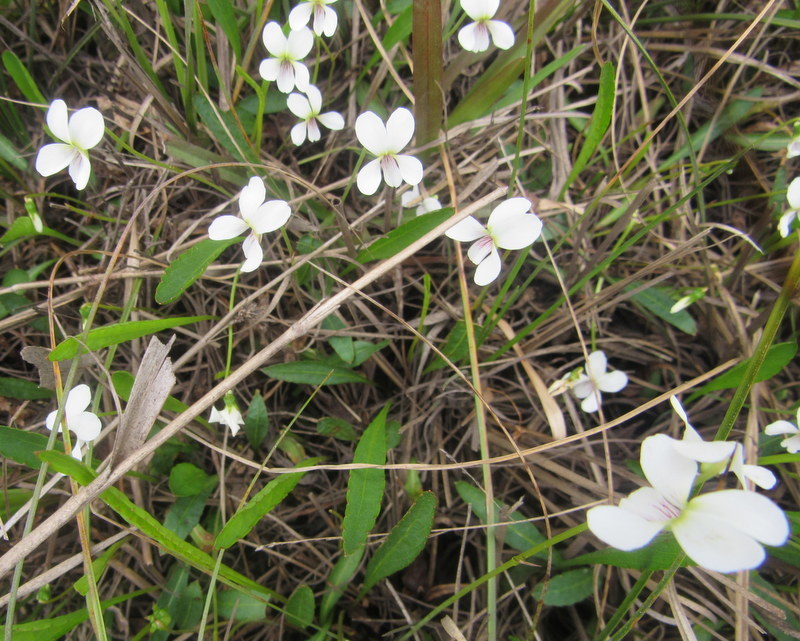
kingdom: Plantae
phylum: Tracheophyta
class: Magnoliopsida
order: Malpighiales
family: Violaceae
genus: Viola
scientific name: Viola lanceolata
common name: Bog white violet
